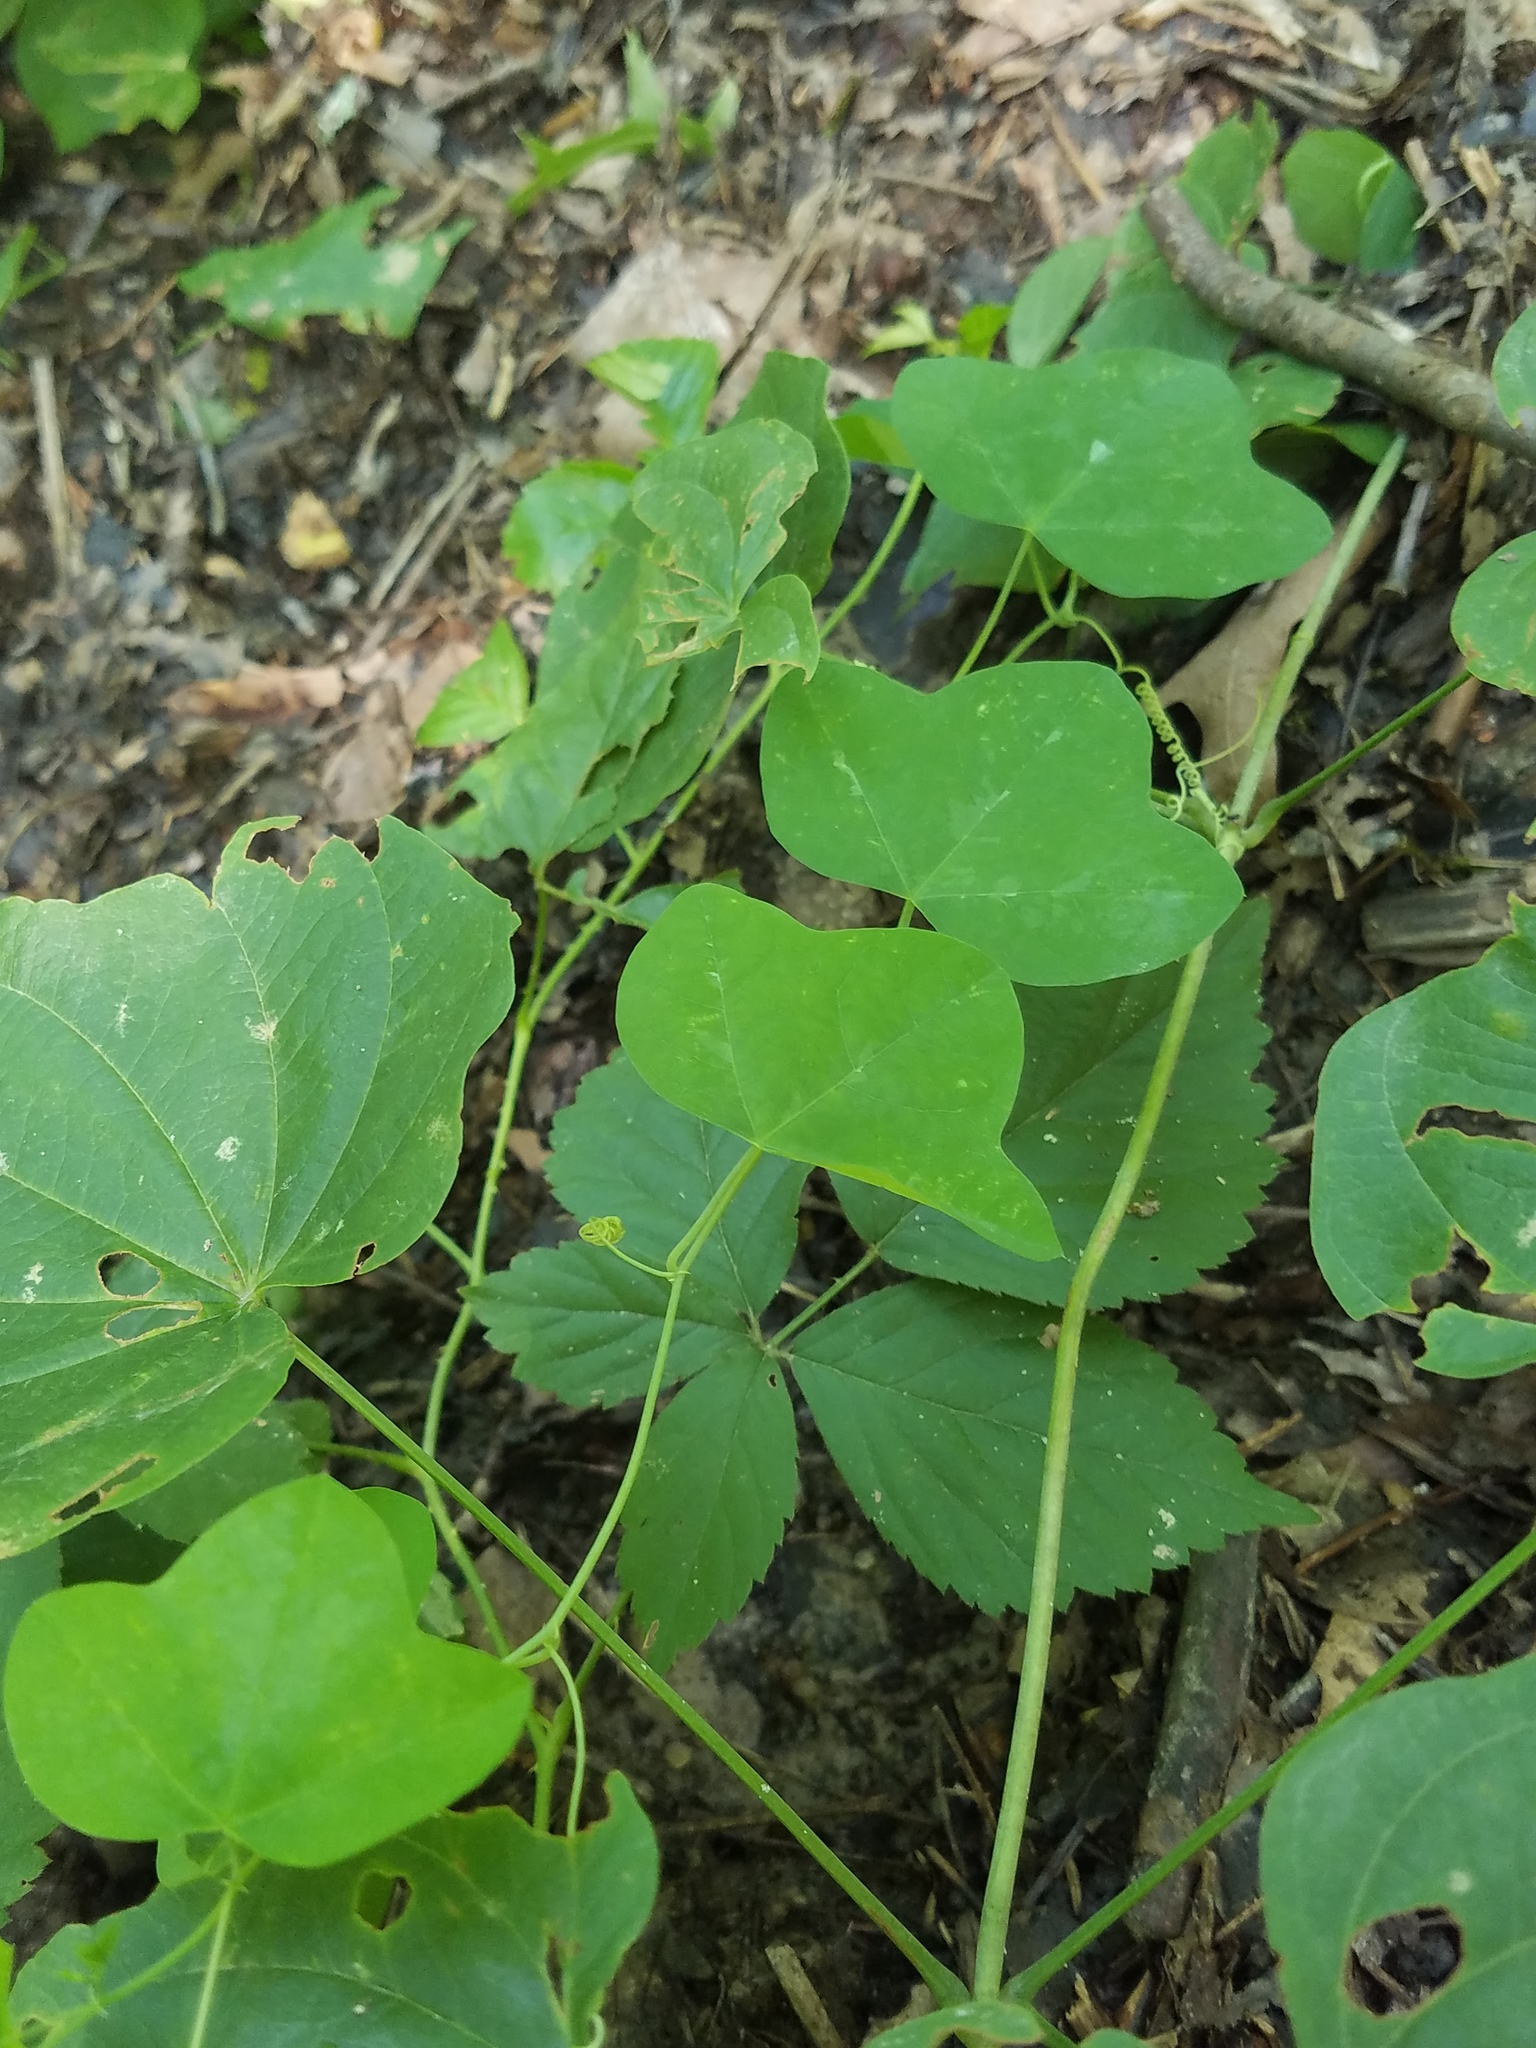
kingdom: Plantae
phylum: Tracheophyta
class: Magnoliopsida
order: Malpighiales
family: Passifloraceae
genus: Passiflora
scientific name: Passiflora lutea
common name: Yellow passionflower
